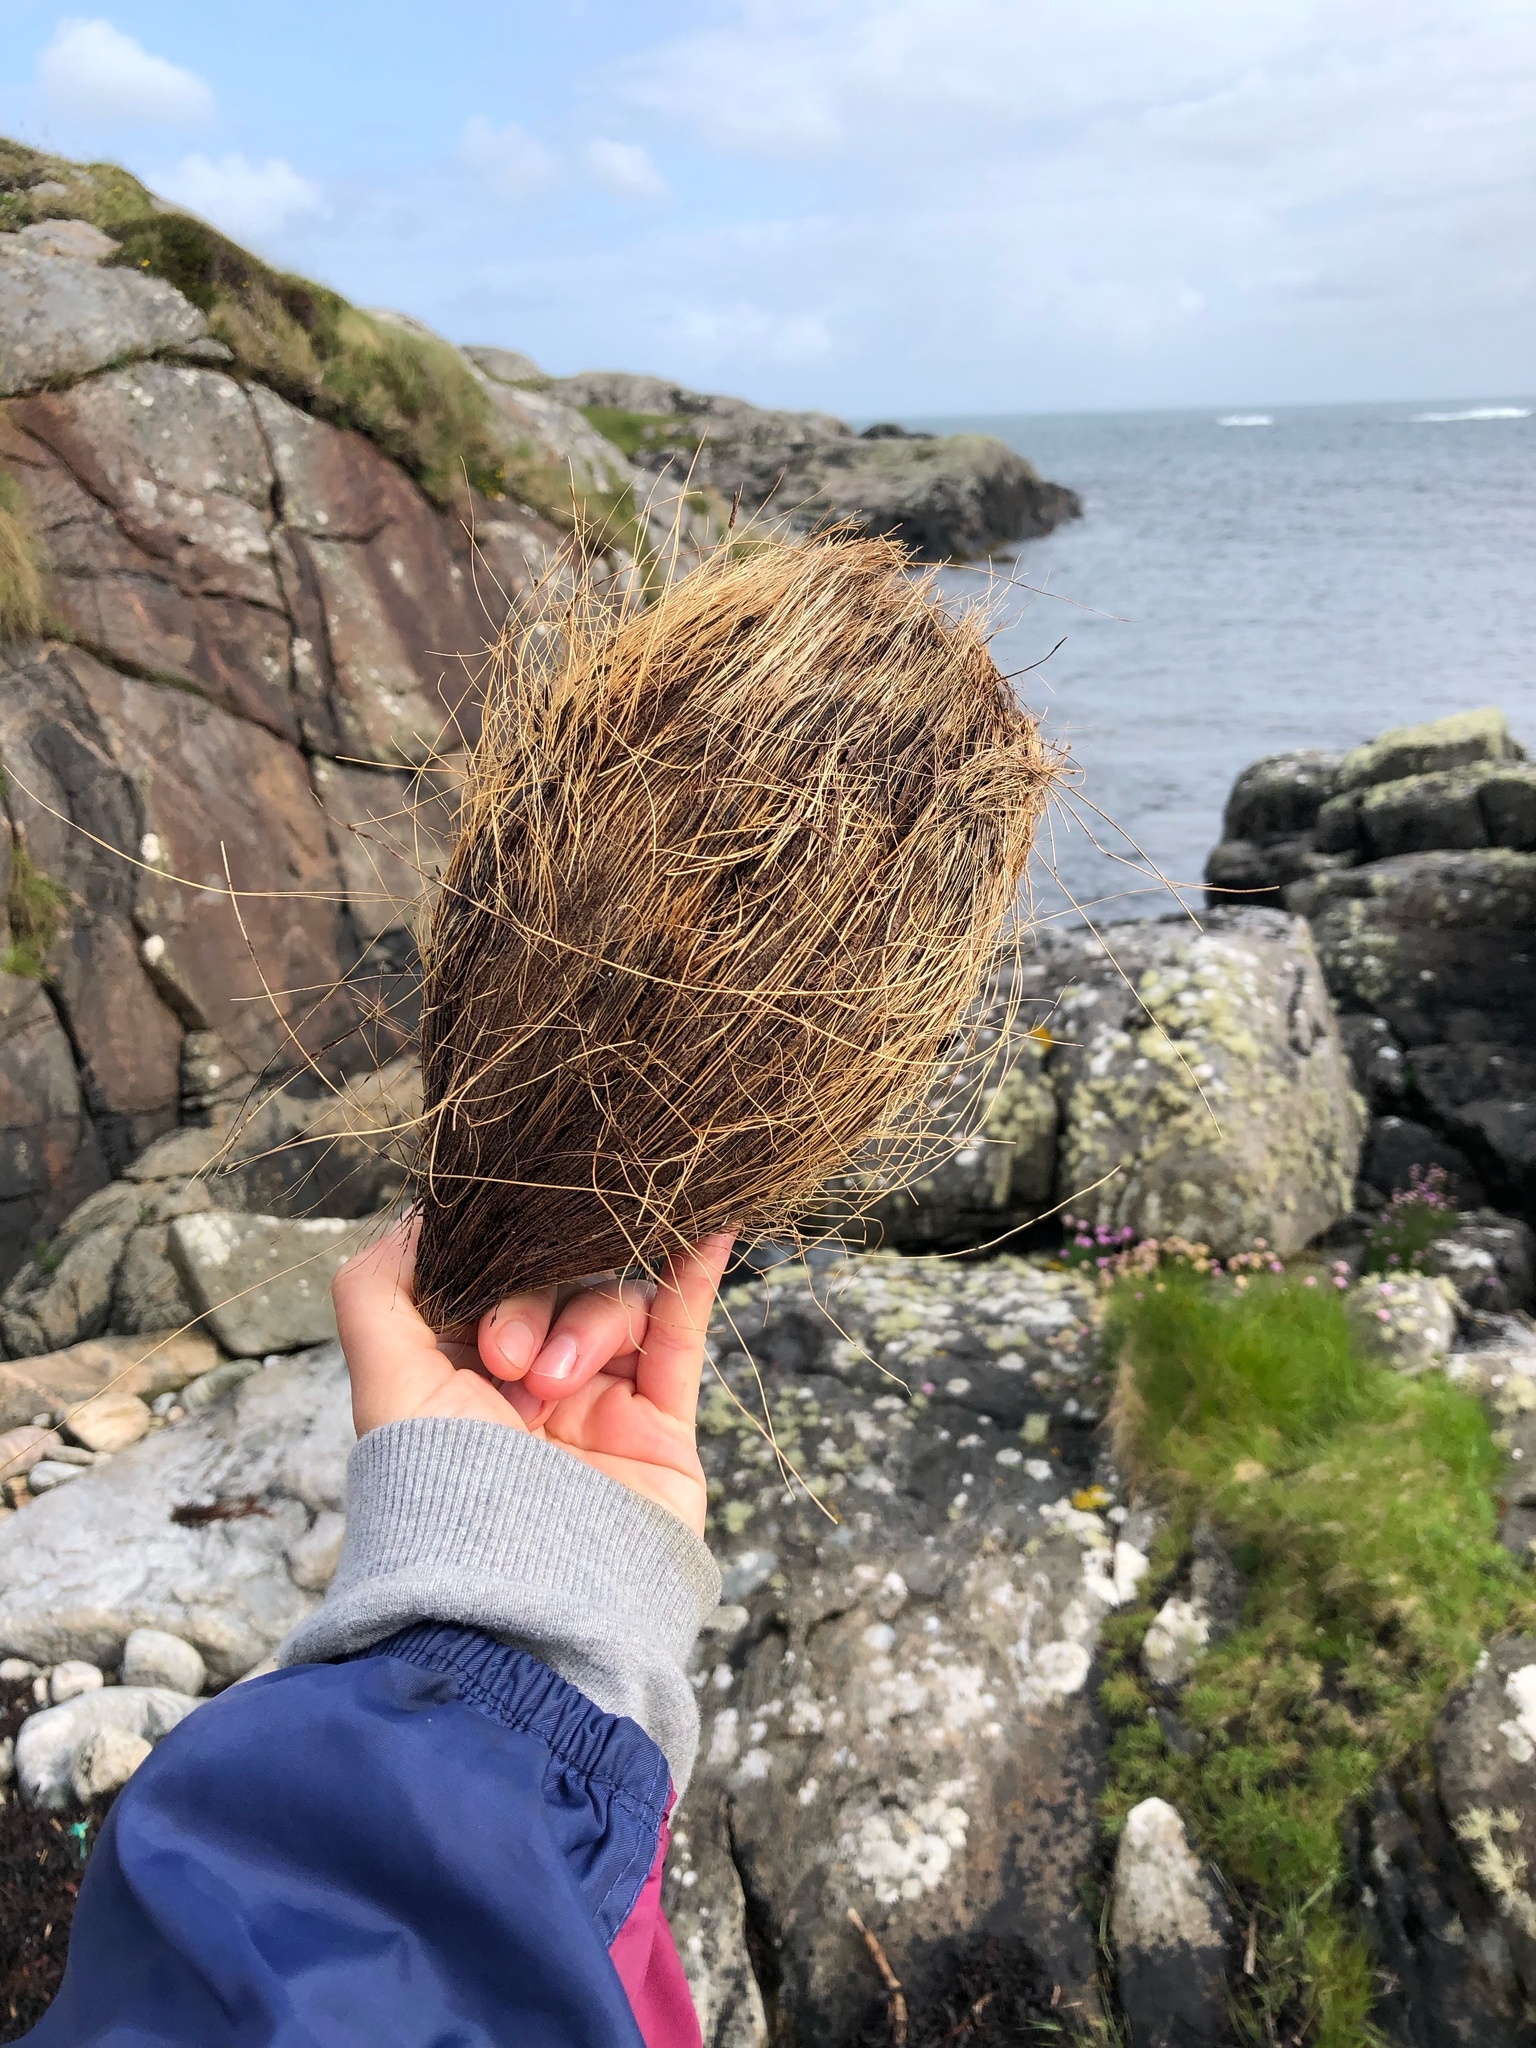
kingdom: Plantae
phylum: Tracheophyta
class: Liliopsida
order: Arecales
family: Arecaceae
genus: Cocos
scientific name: Cocos nucifera
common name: Coconut palm
